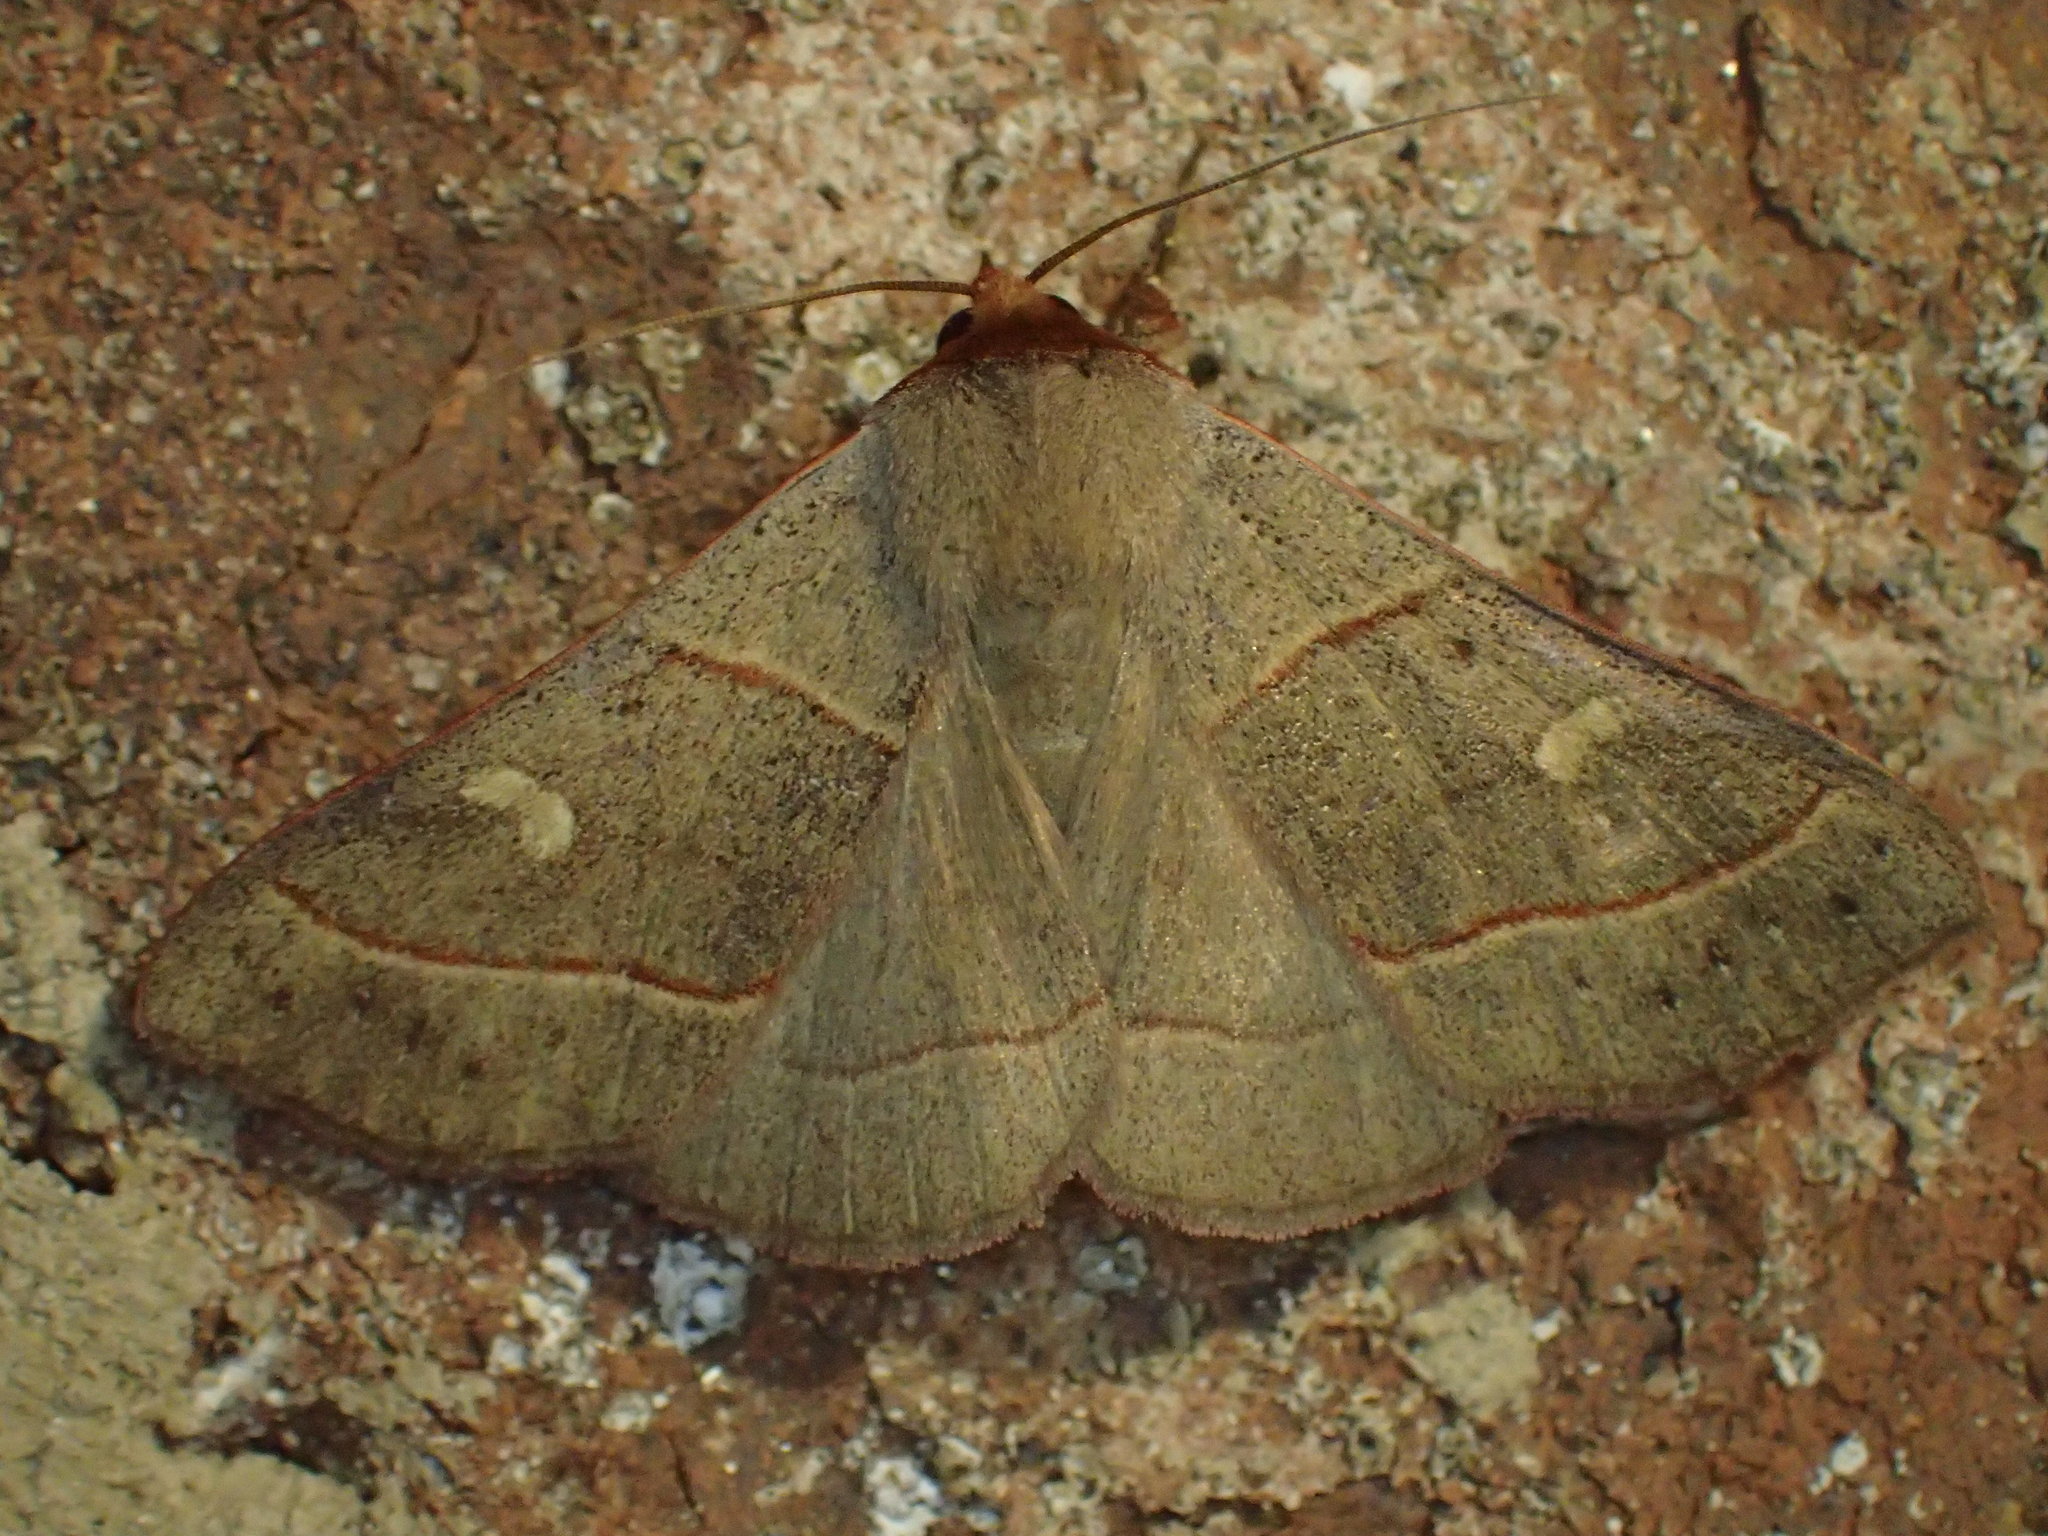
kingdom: Animalia
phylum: Arthropoda
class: Insecta
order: Lepidoptera
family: Erebidae
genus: Panopoda
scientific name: Panopoda rufimargo
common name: Red-lined panopoda moth
